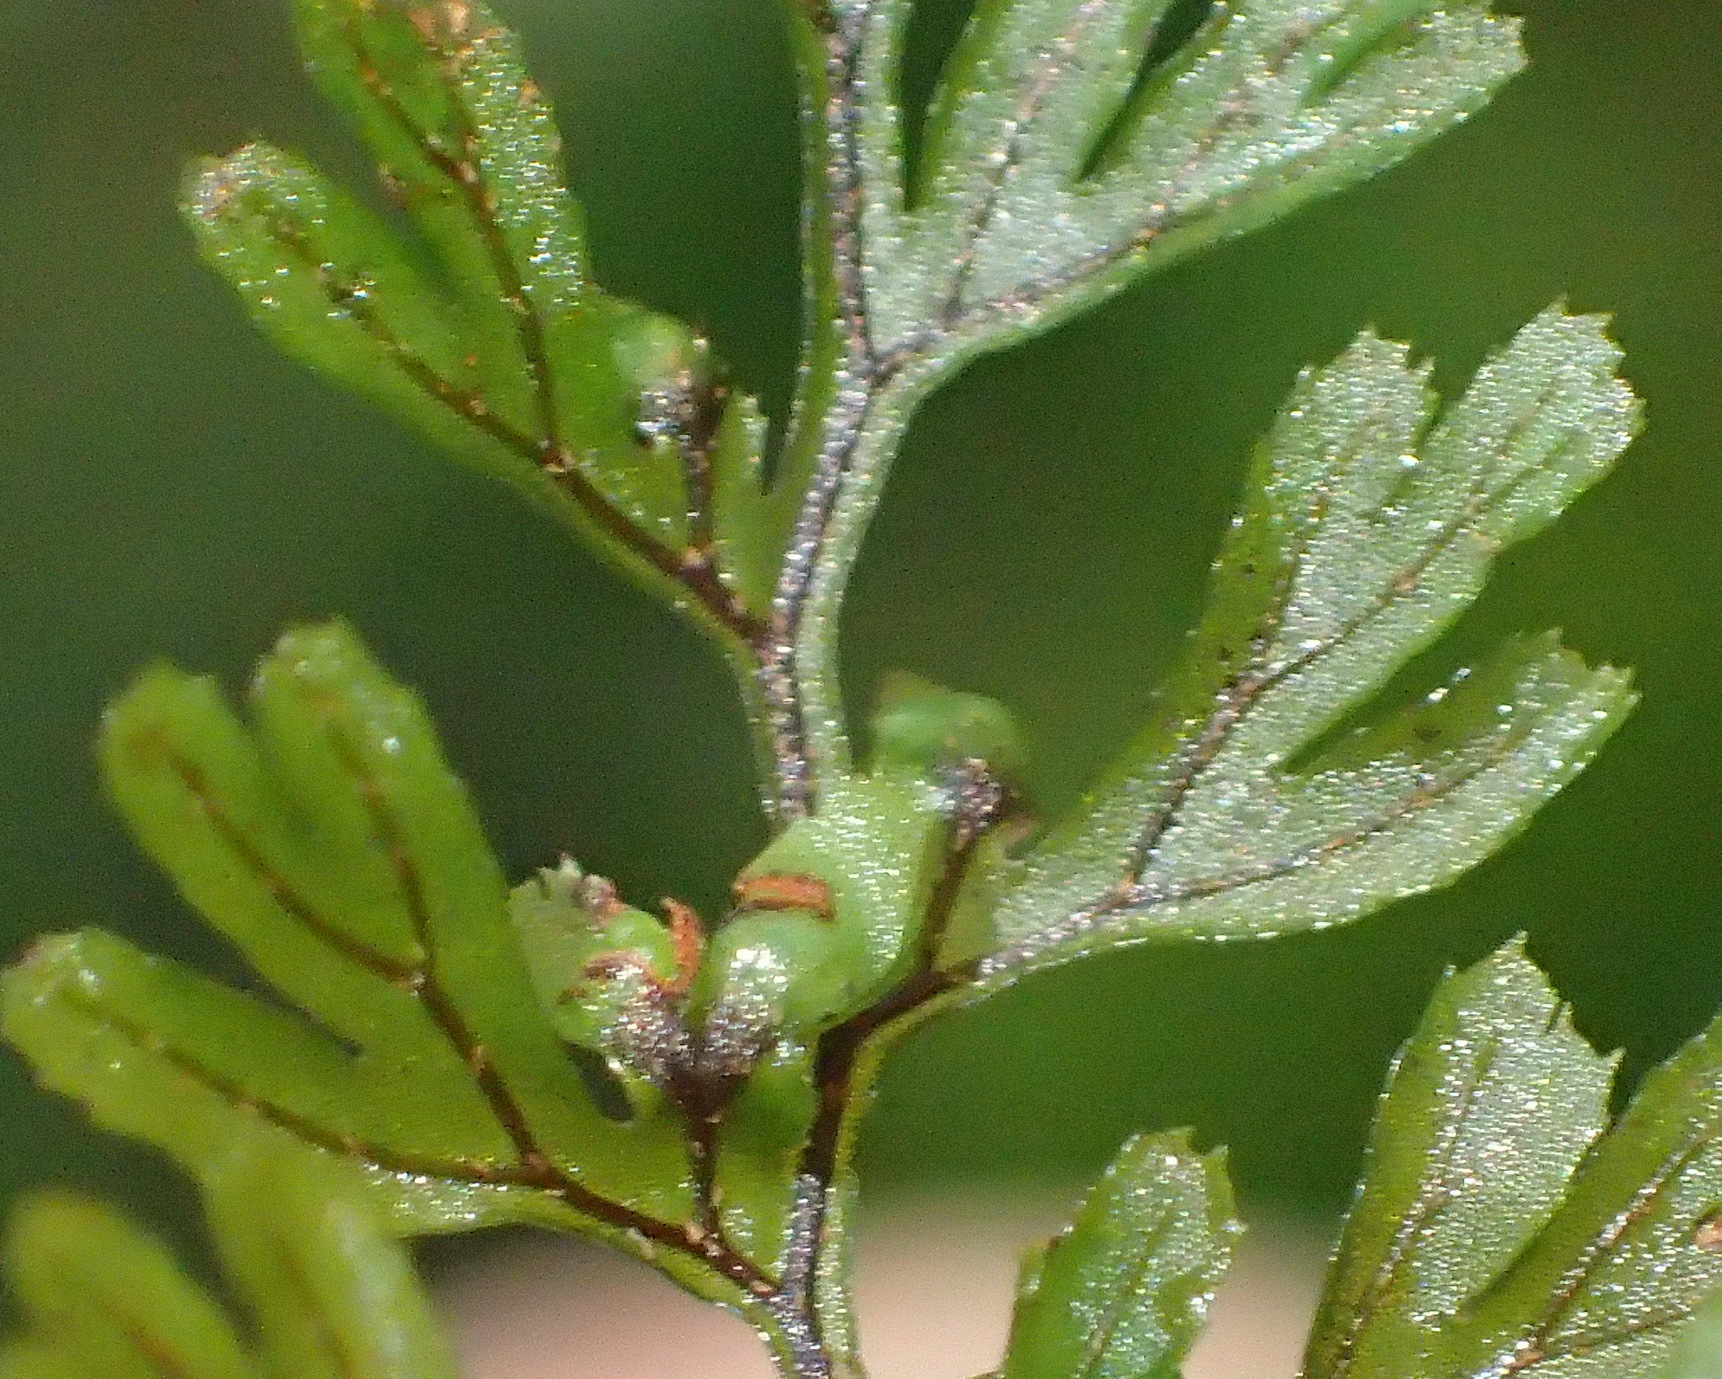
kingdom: Plantae
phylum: Tracheophyta
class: Polypodiopsida
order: Hymenophyllales
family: Hymenophyllaceae
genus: Hymenophyllum
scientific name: Hymenophyllum tunbrigense
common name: Tunbridge filmy fern
